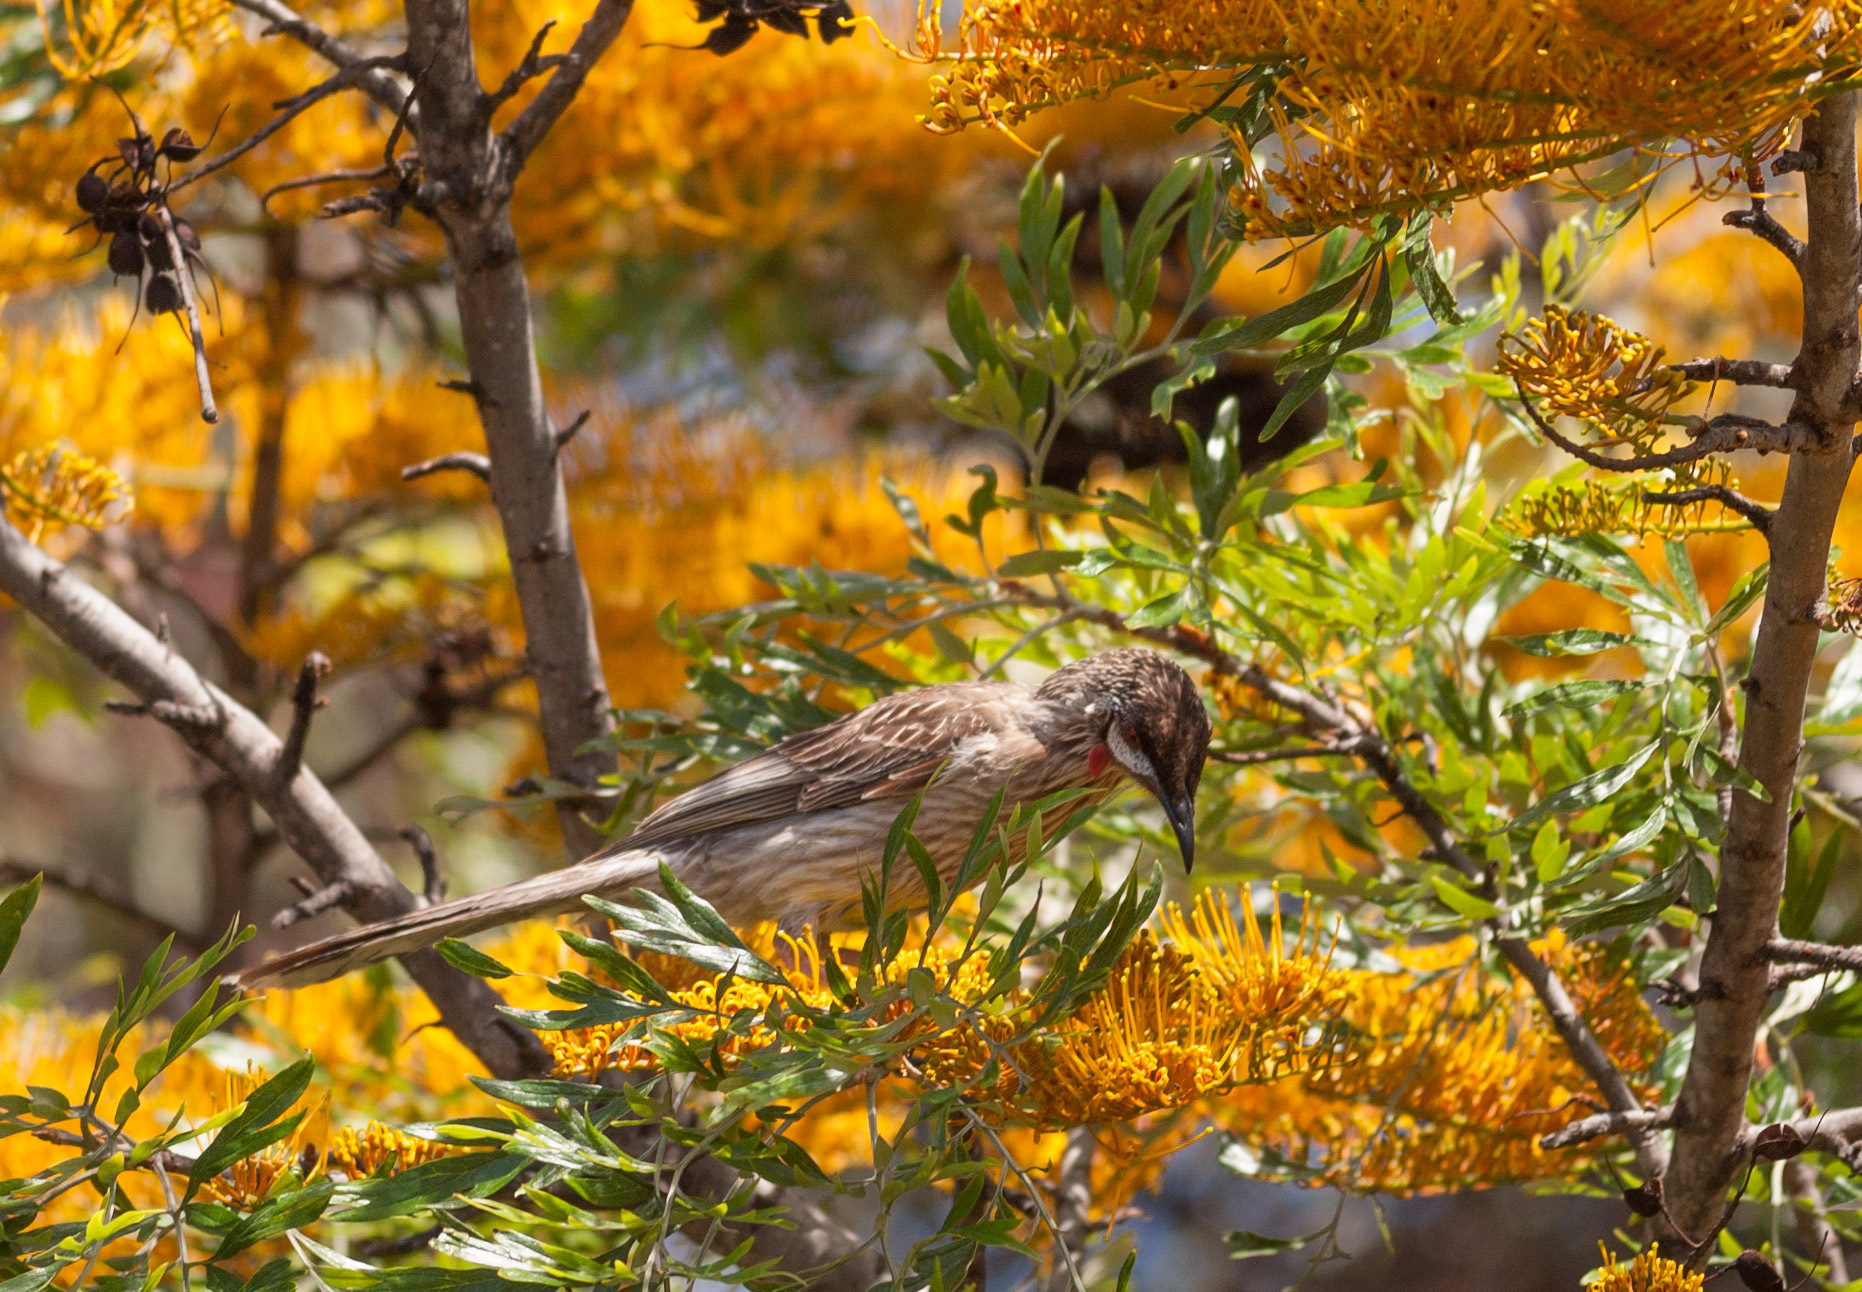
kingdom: Animalia
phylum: Chordata
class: Aves
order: Passeriformes
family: Meliphagidae
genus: Anthochaera
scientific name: Anthochaera carunculata
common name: Red wattlebird
